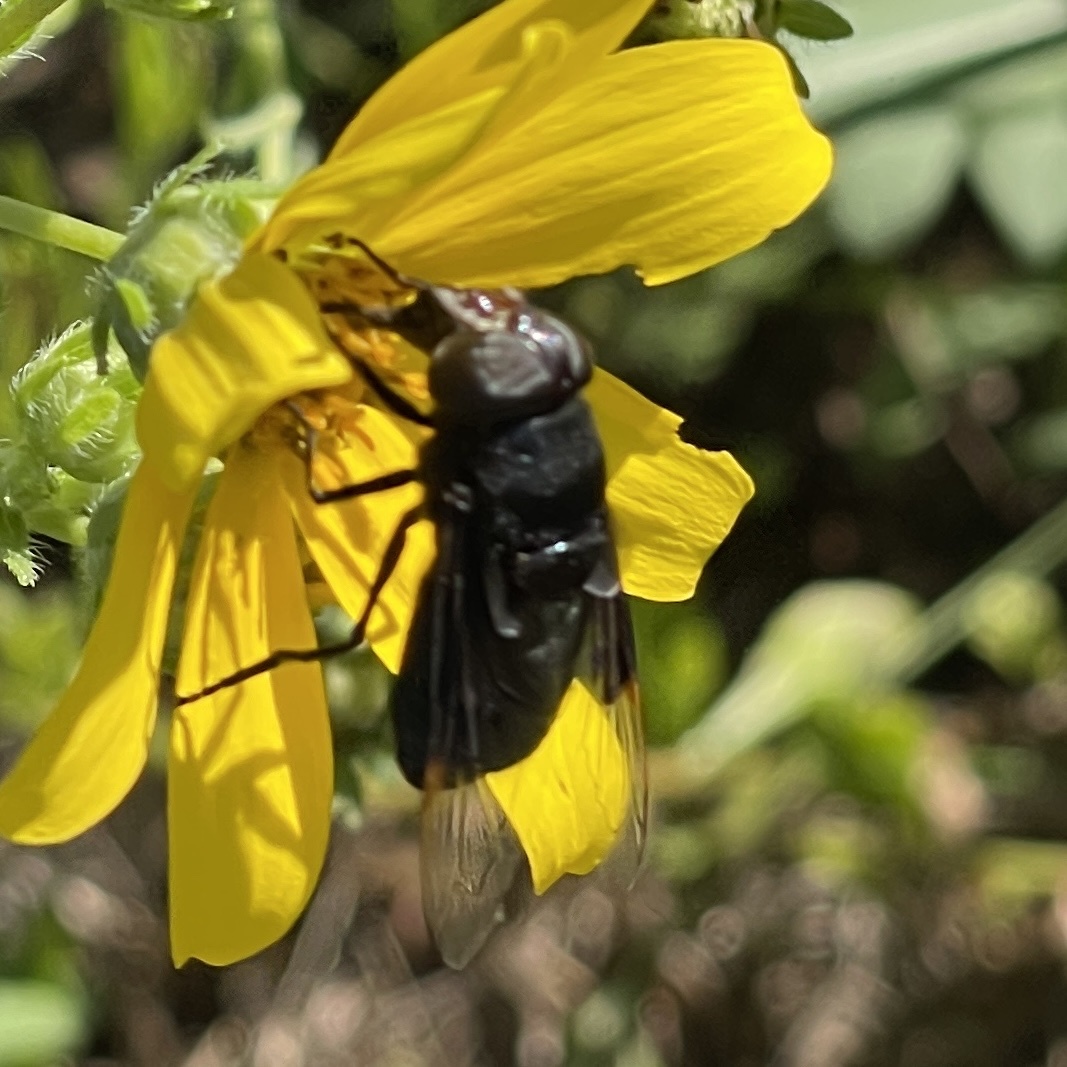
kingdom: Animalia
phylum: Arthropoda
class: Insecta
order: Diptera
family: Syrphidae
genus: Copestylum
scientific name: Copestylum
